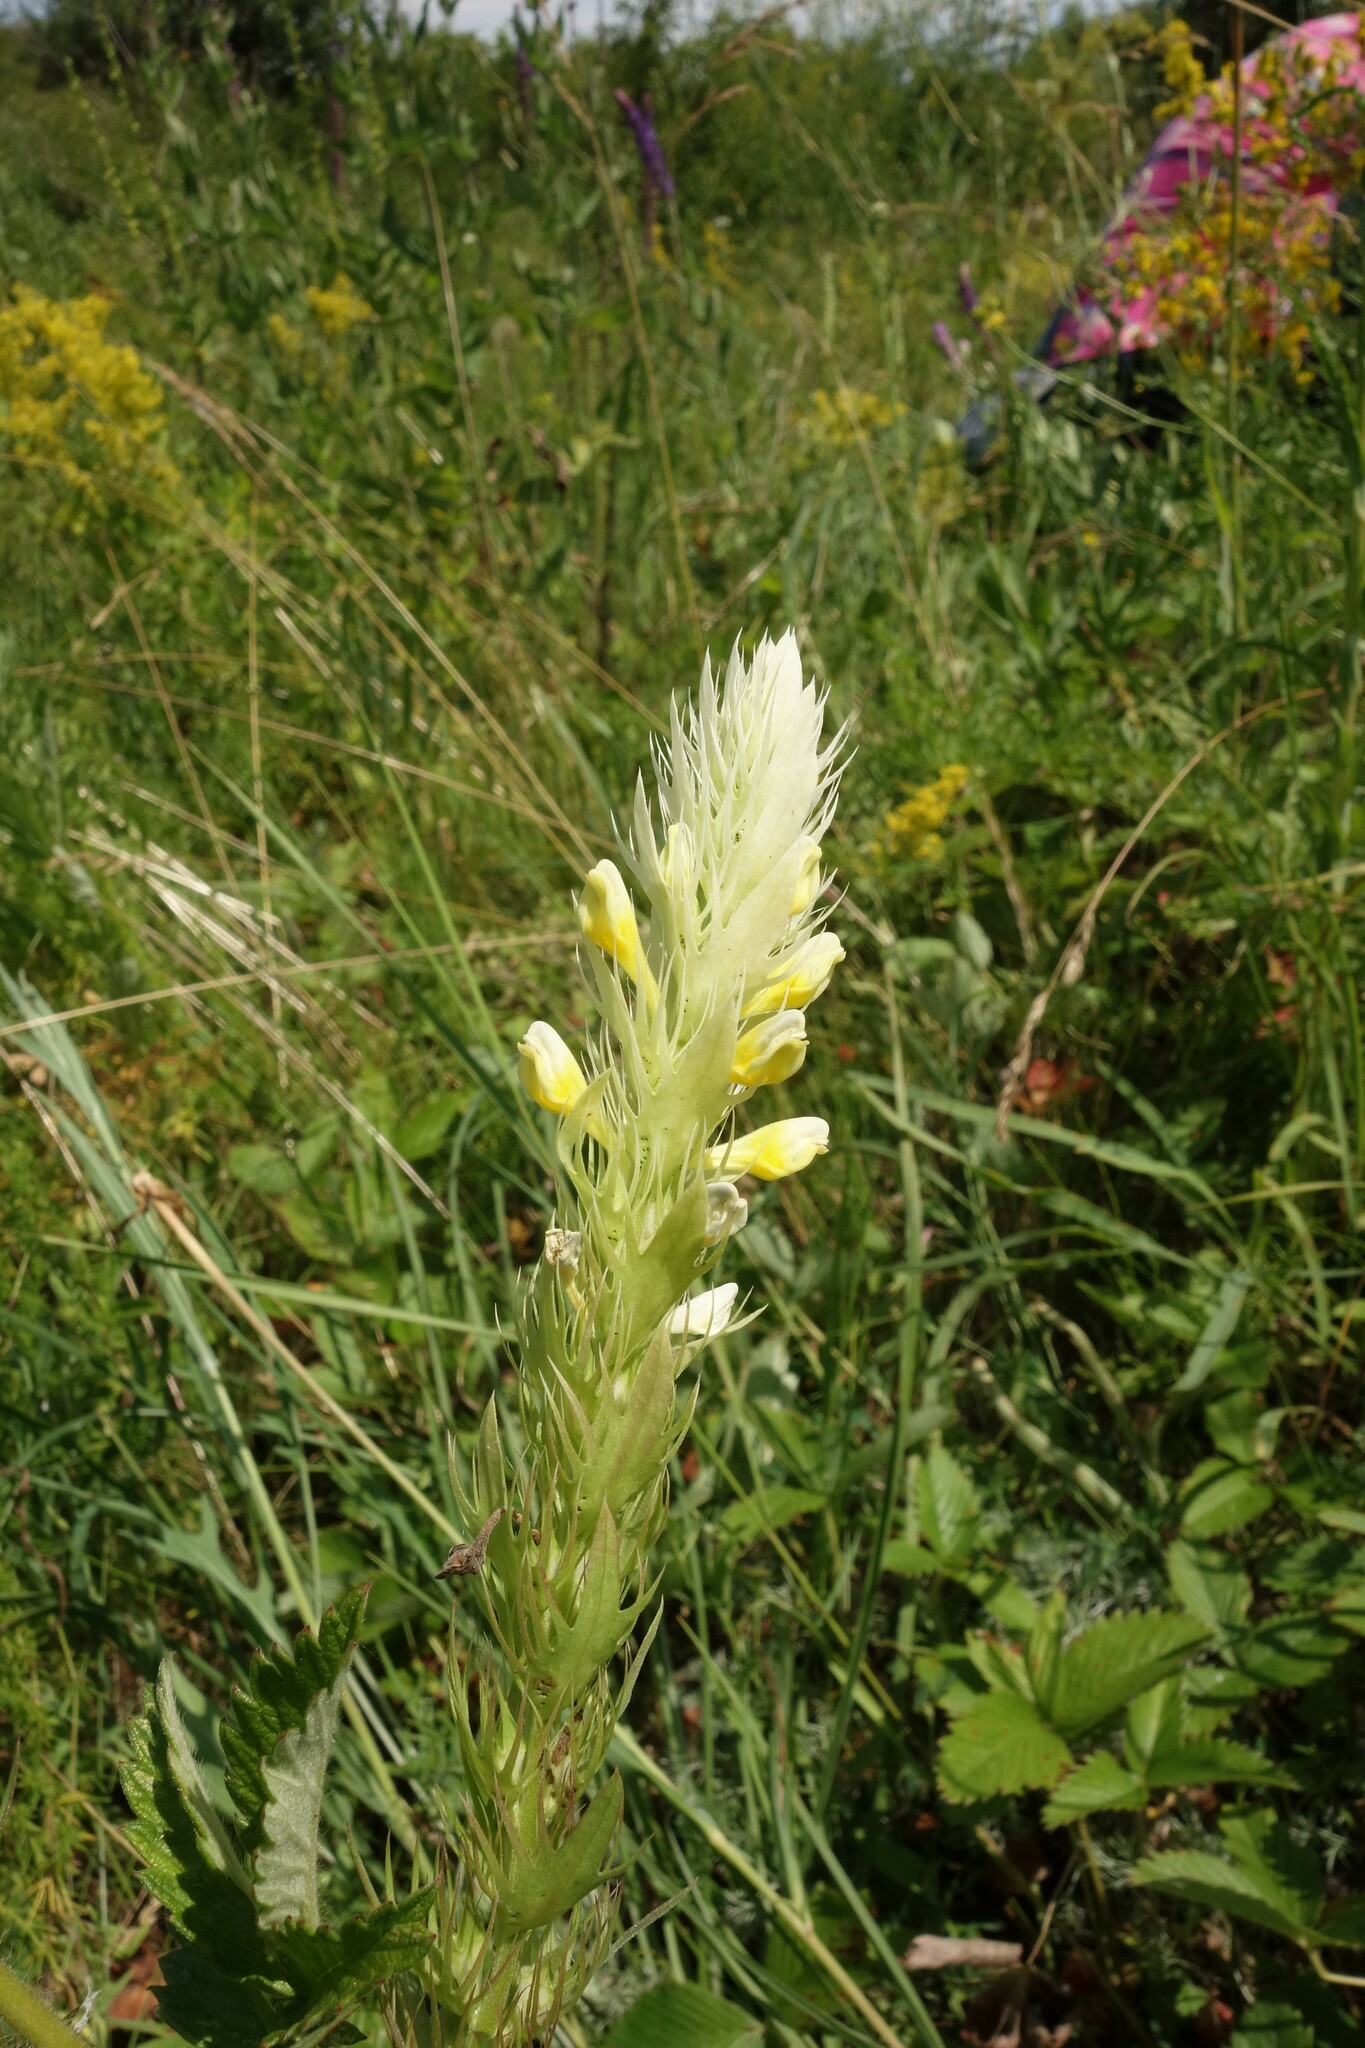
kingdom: Plantae
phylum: Tracheophyta
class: Magnoliopsida
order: Lamiales
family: Orobanchaceae
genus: Melampyrum
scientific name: Melampyrum arvense
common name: Field cow-wheat
